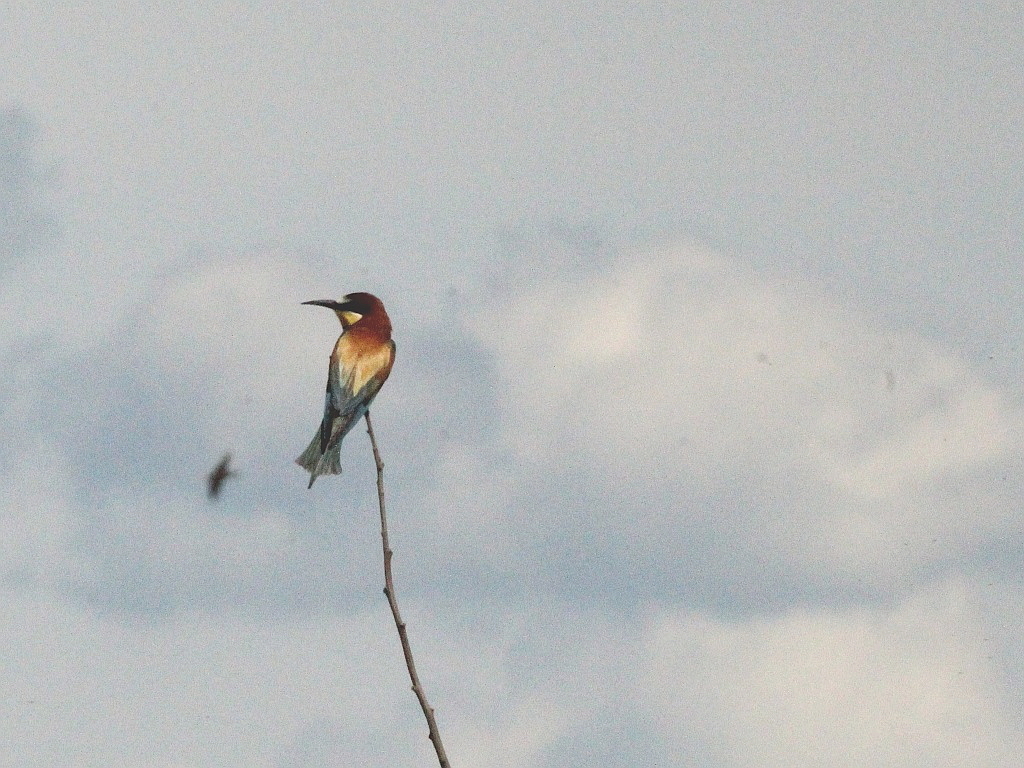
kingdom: Animalia
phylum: Chordata
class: Aves
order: Coraciiformes
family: Meropidae
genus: Merops
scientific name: Merops apiaster
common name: European bee-eater
